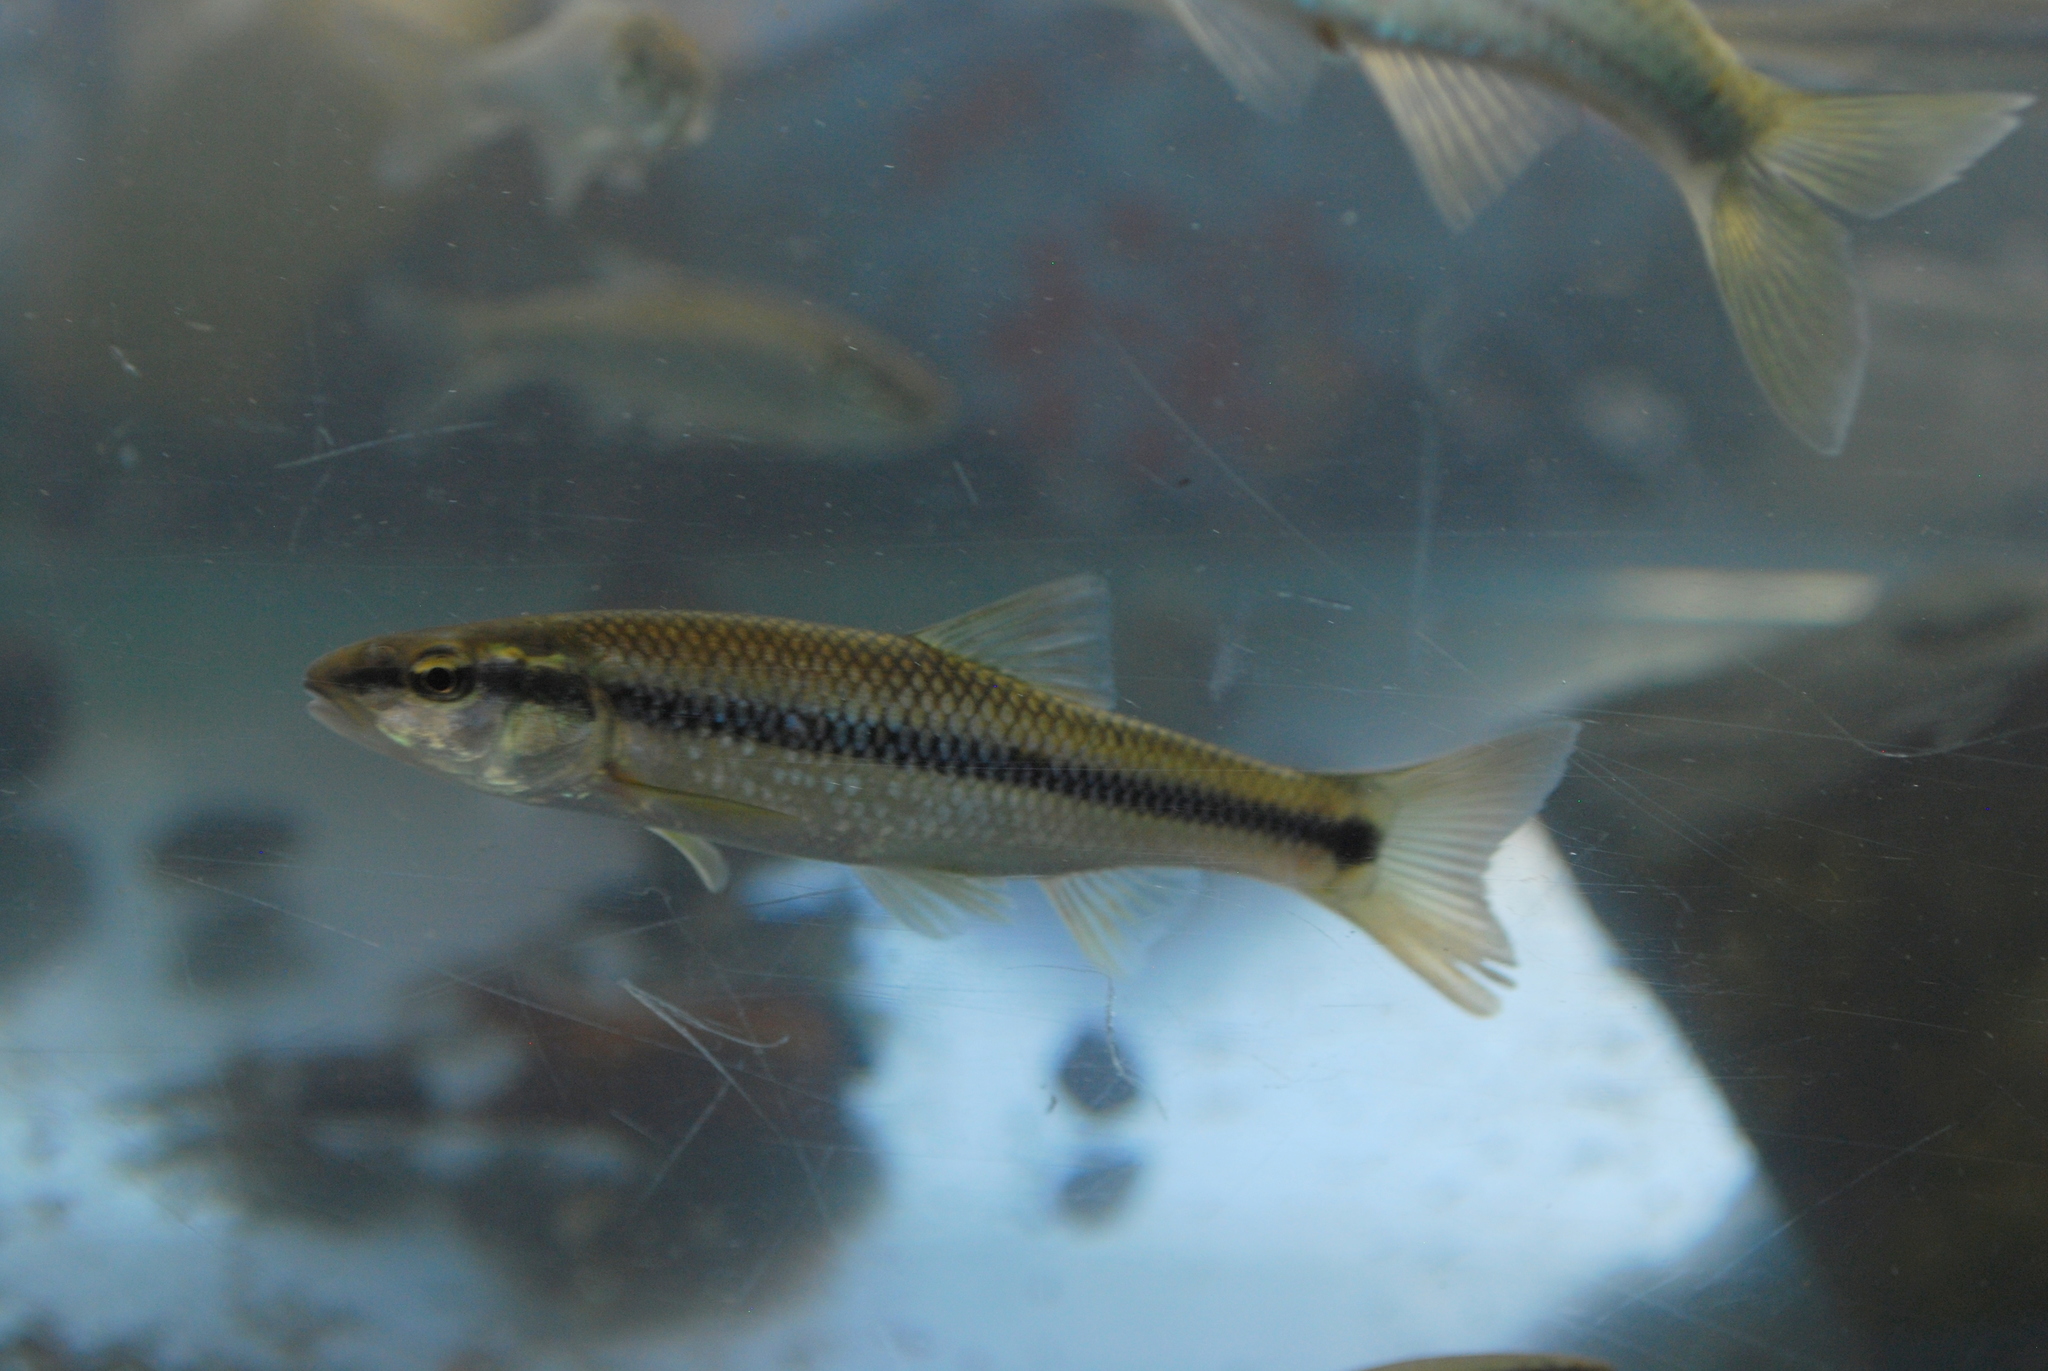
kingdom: Animalia
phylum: Chordata
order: Cypriniformes
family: Cyprinidae
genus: Nocomis
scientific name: Nocomis biguttatus
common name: Hornyhead chub
